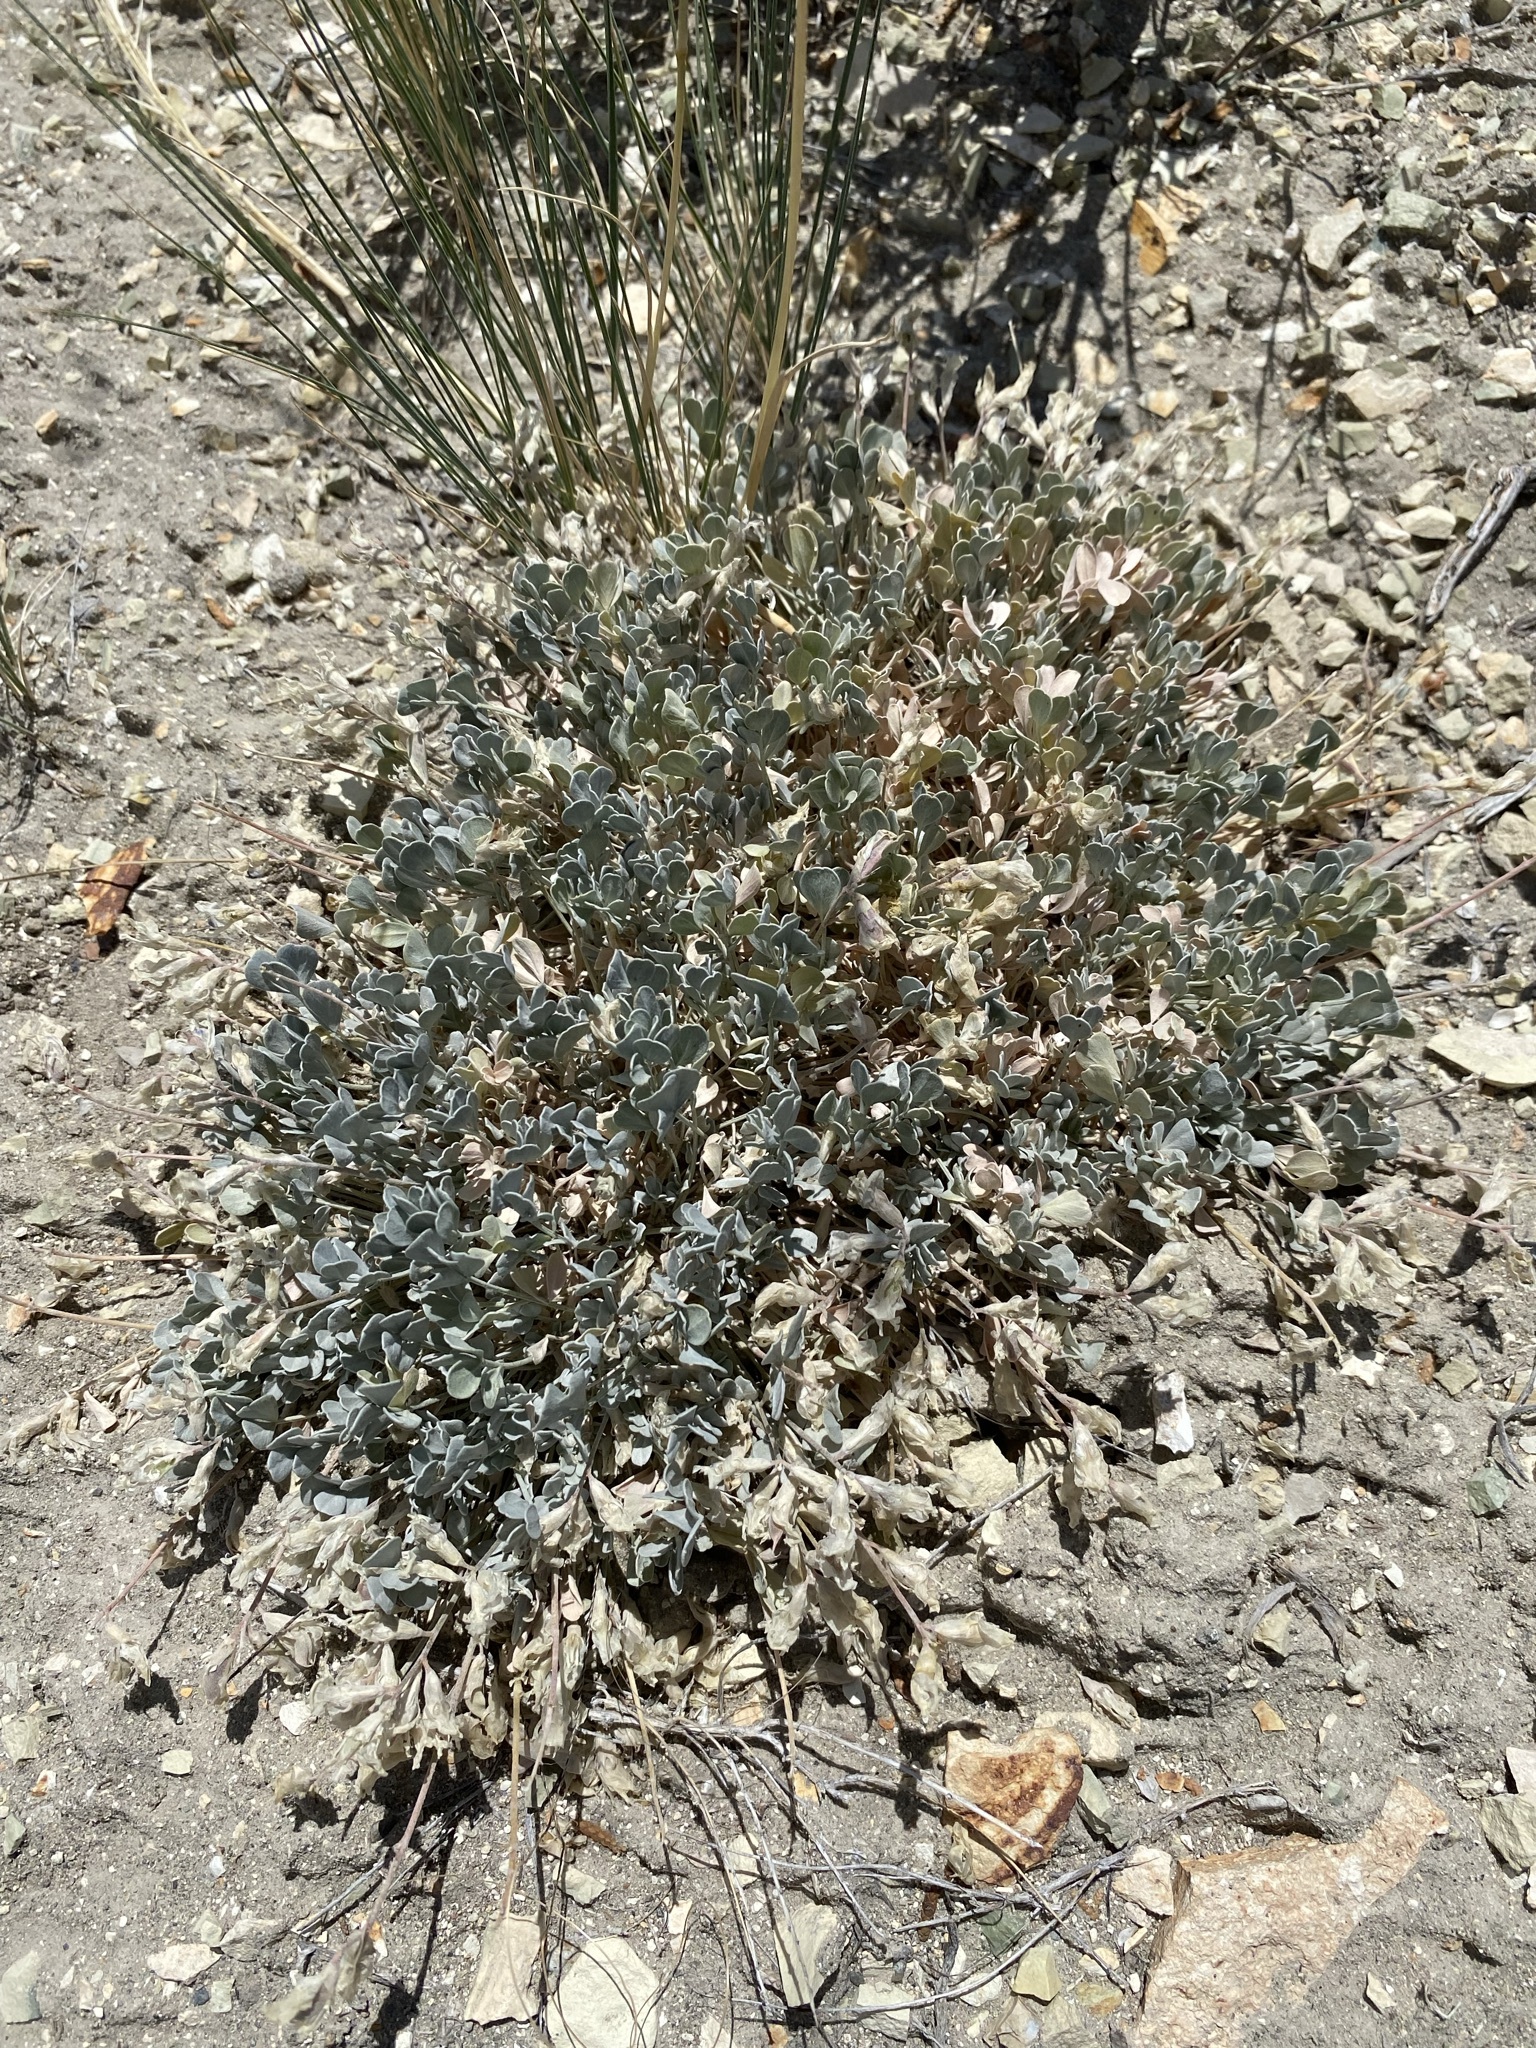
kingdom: Plantae
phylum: Tracheophyta
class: Magnoliopsida
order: Fabales
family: Fabaceae
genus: Astragalus
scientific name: Astragalus calycosus
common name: King's milkvetch
